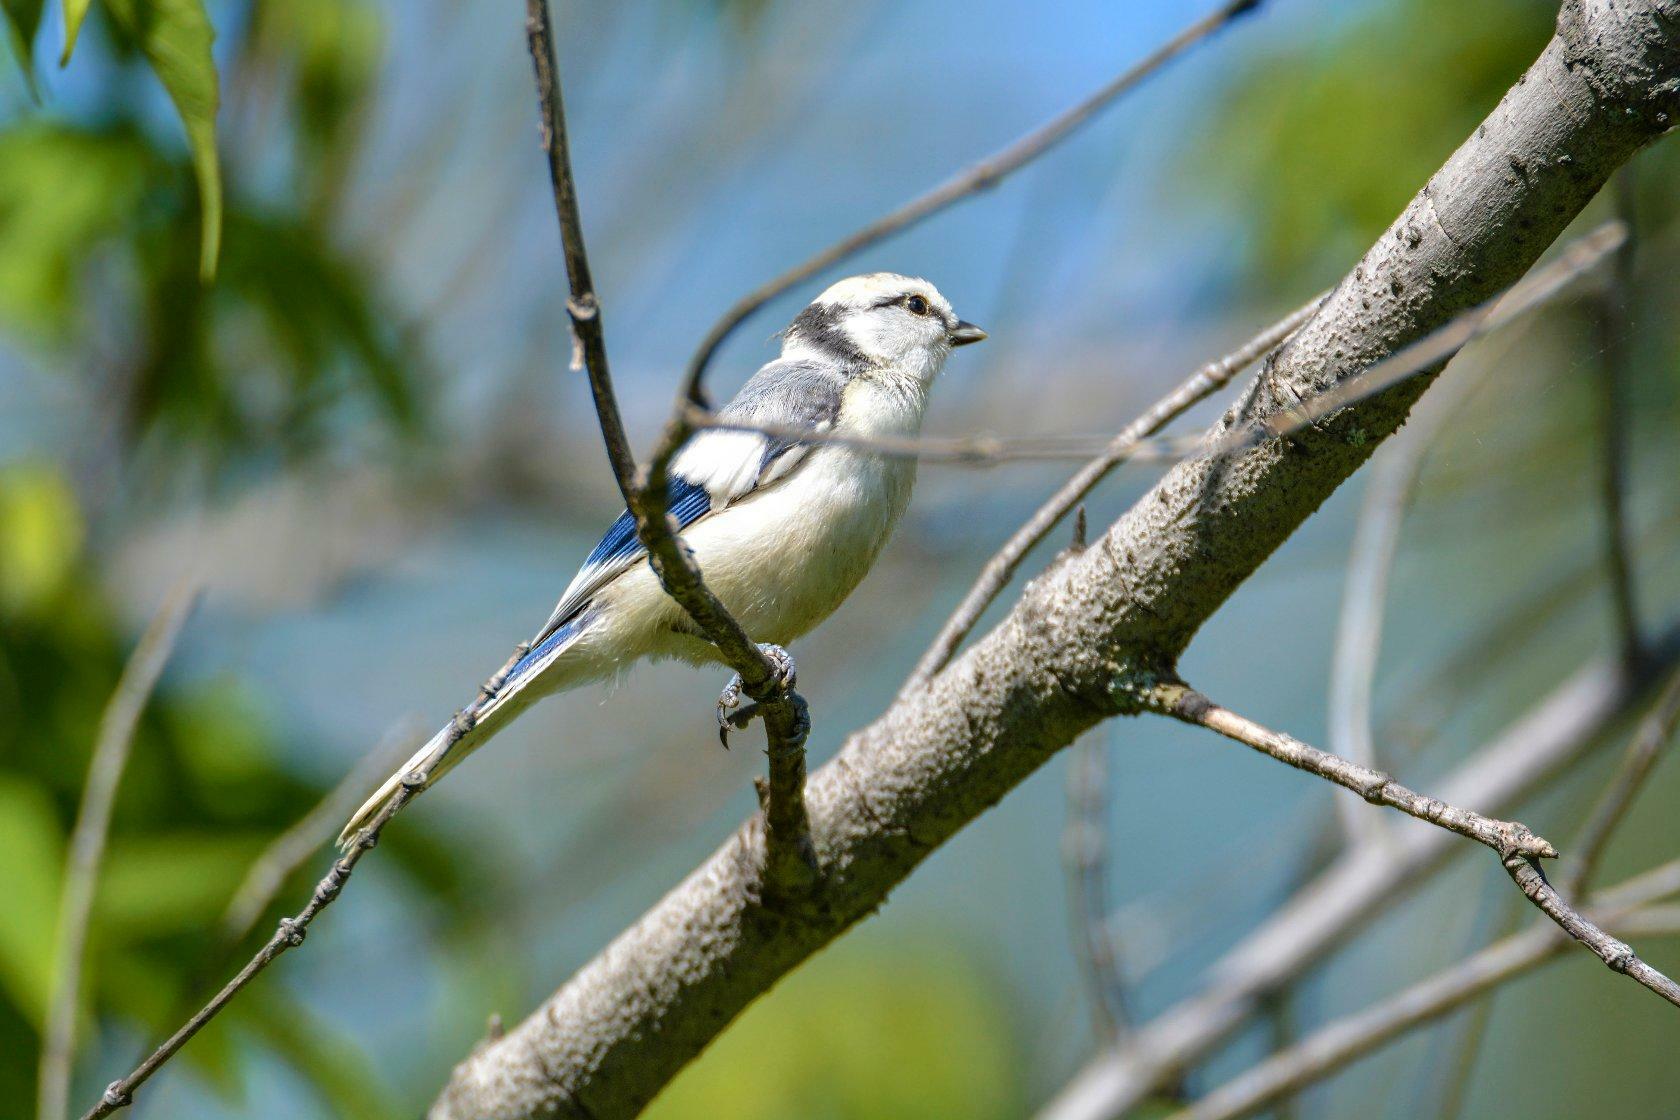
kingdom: Animalia
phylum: Chordata
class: Aves
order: Passeriformes
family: Paridae
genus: Cyanistes
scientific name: Cyanistes cyanus
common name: Azure tit
